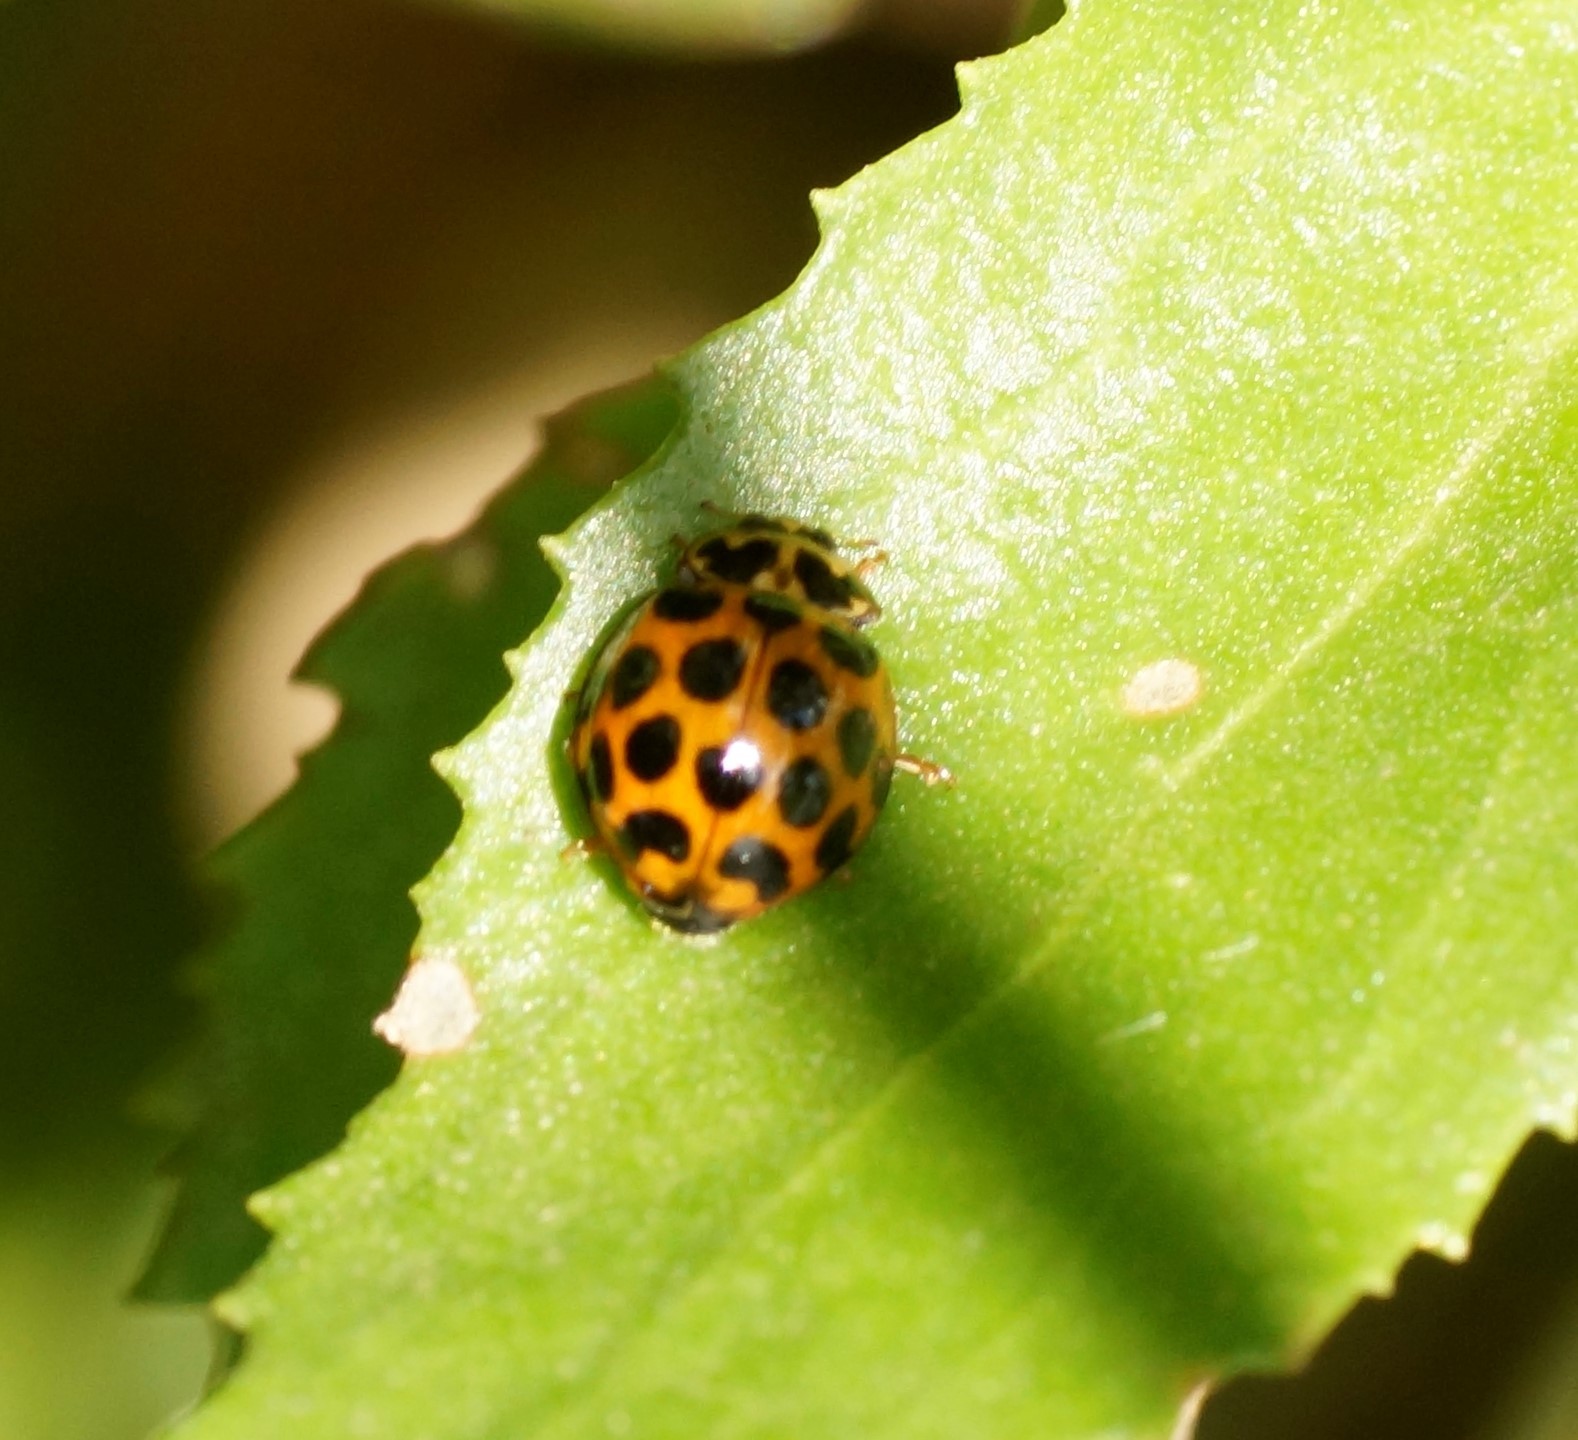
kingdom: Animalia
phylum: Arthropoda
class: Insecta
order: Coleoptera
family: Coccinellidae
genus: Harmonia
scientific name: Harmonia conformis
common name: Common spotted ladybird beetle
